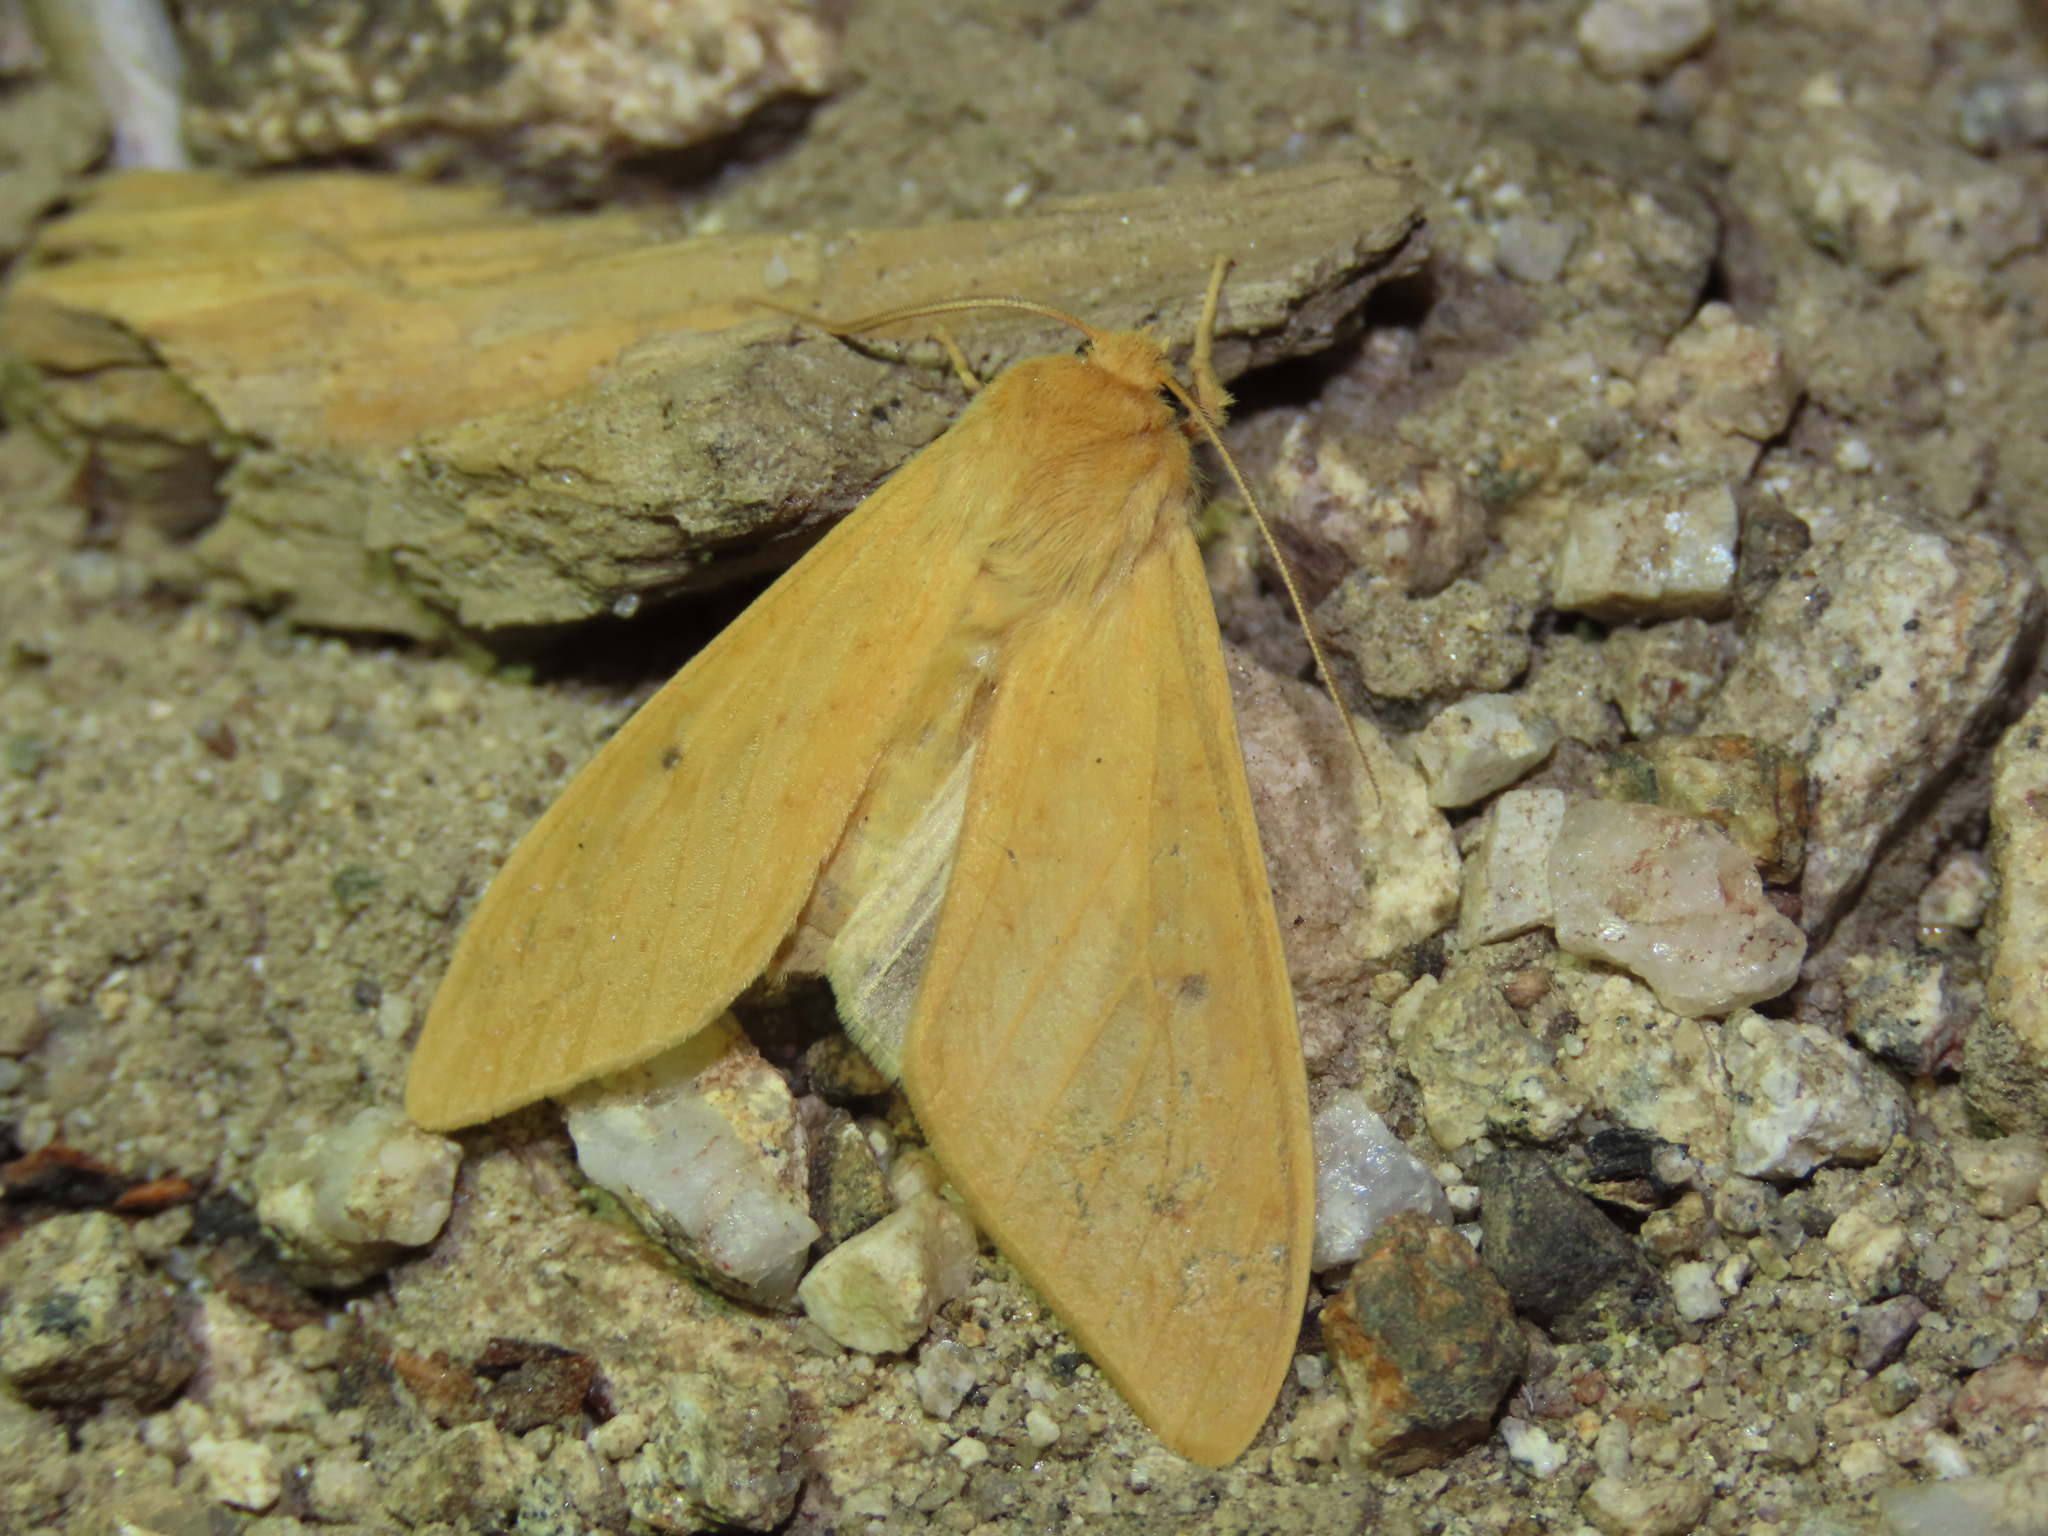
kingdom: Animalia
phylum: Arthropoda
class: Insecta
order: Lepidoptera
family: Erebidae
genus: Lophocampa
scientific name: Lophocampa pura
